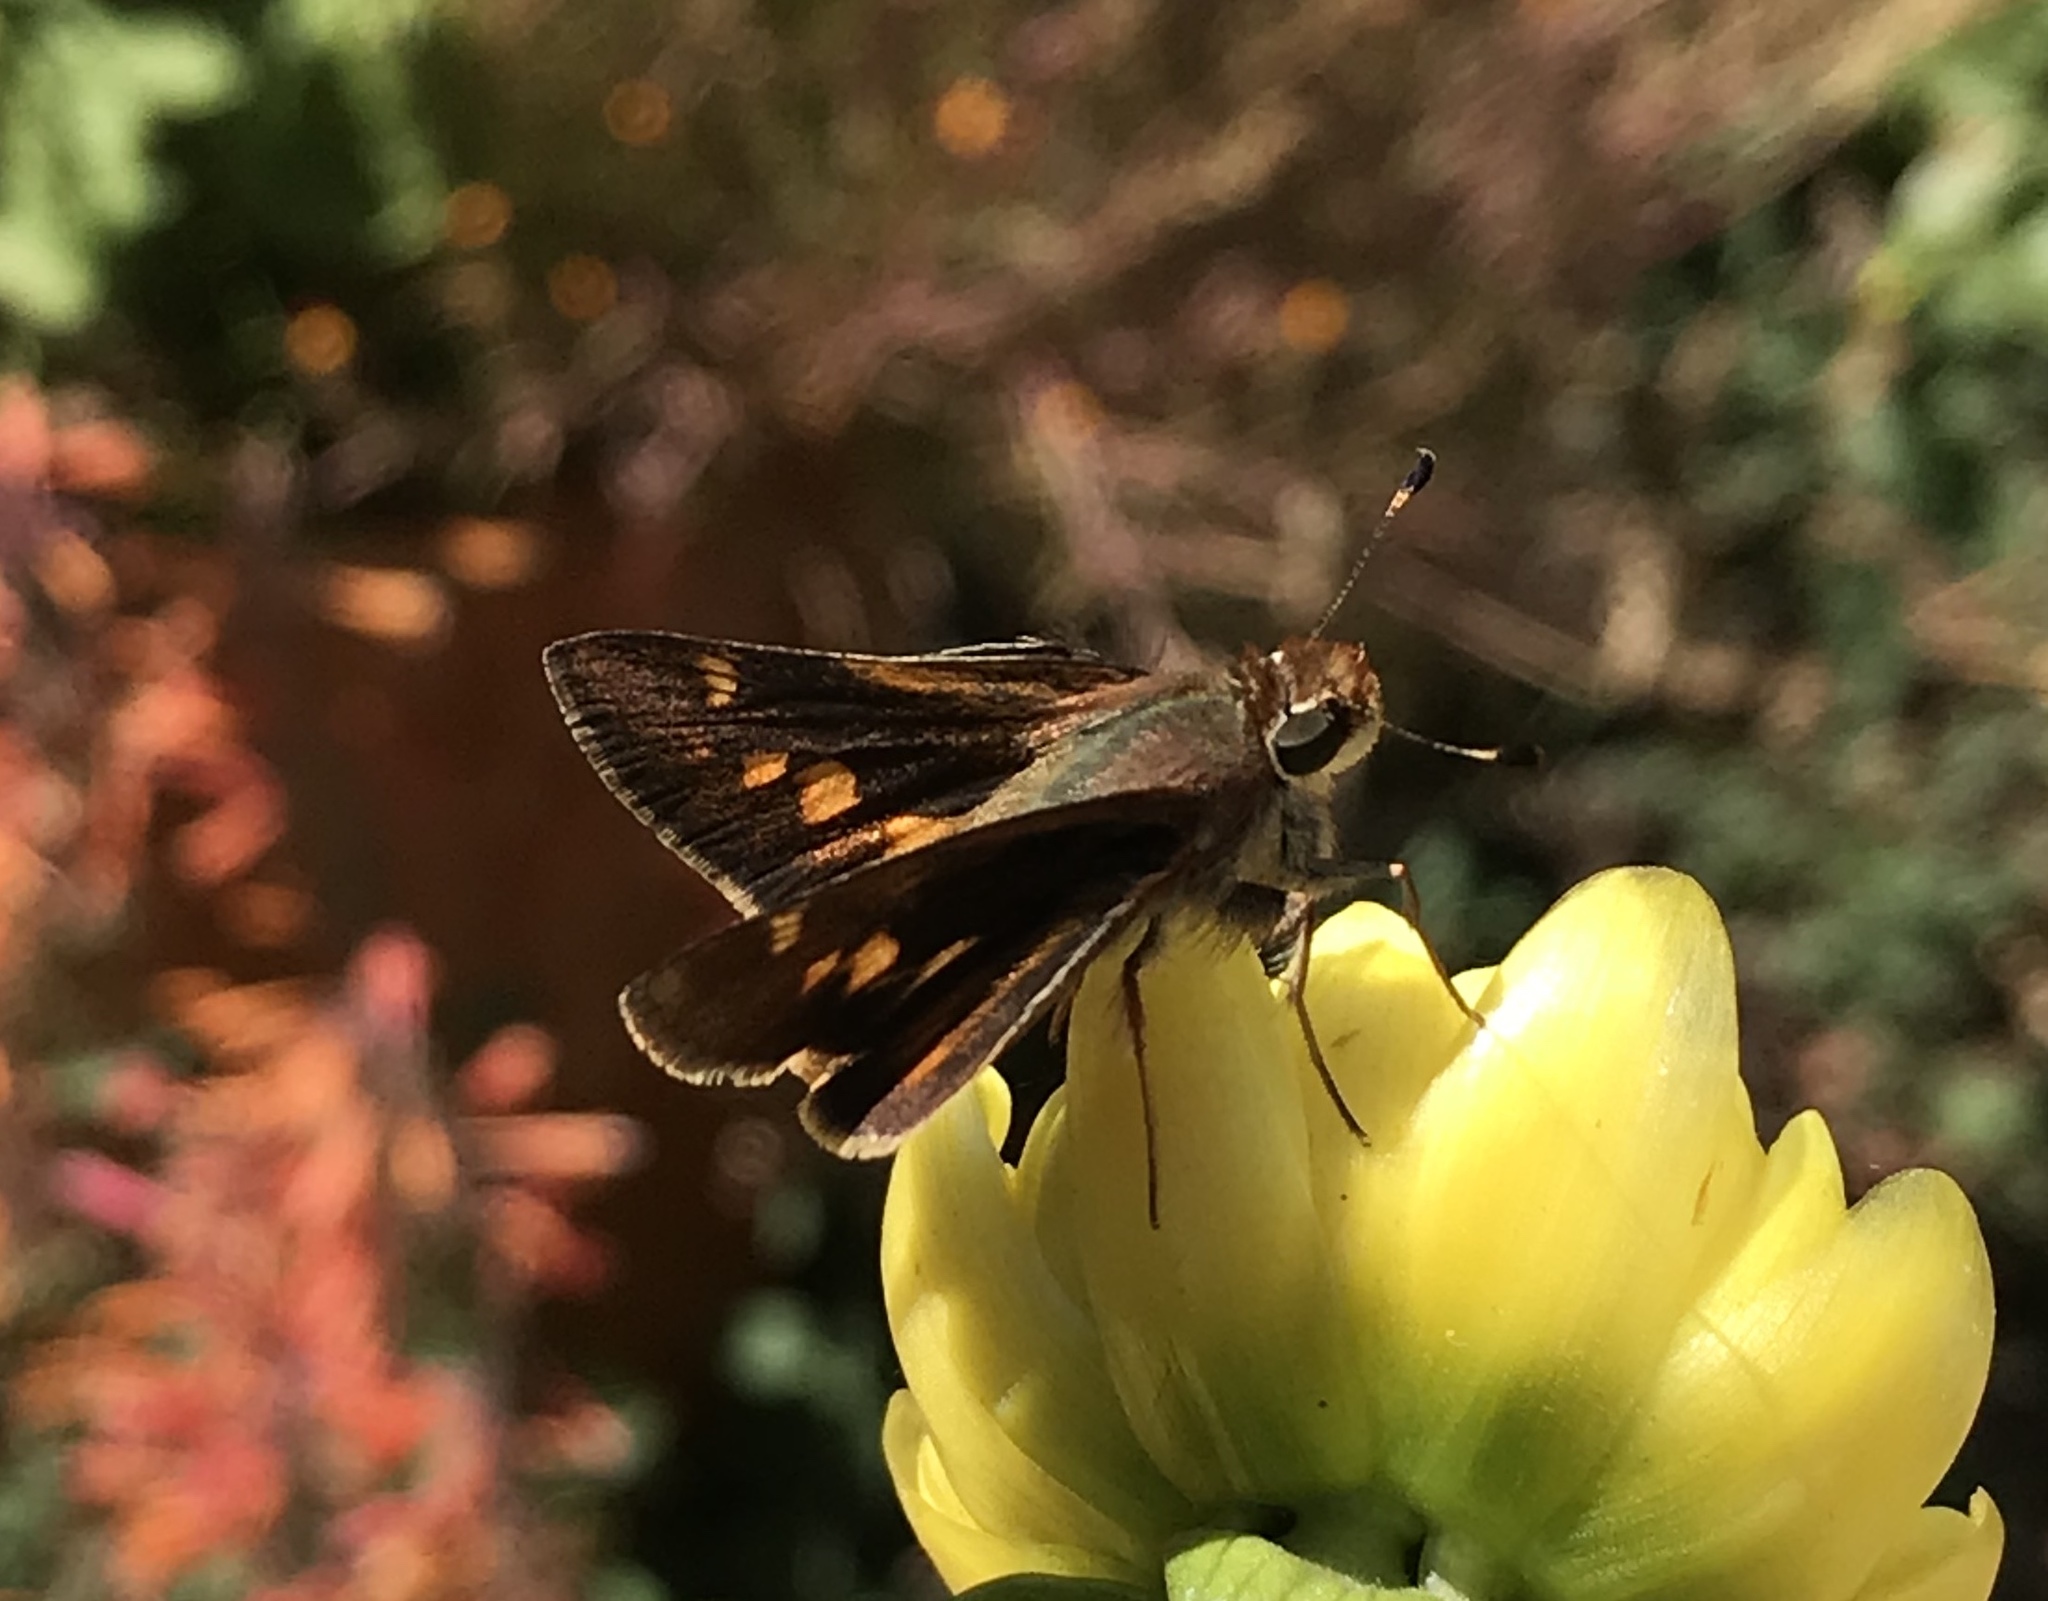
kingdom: Animalia
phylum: Arthropoda
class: Insecta
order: Lepidoptera
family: Hesperiidae
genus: Lon
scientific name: Lon melane
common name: Umber skipper
